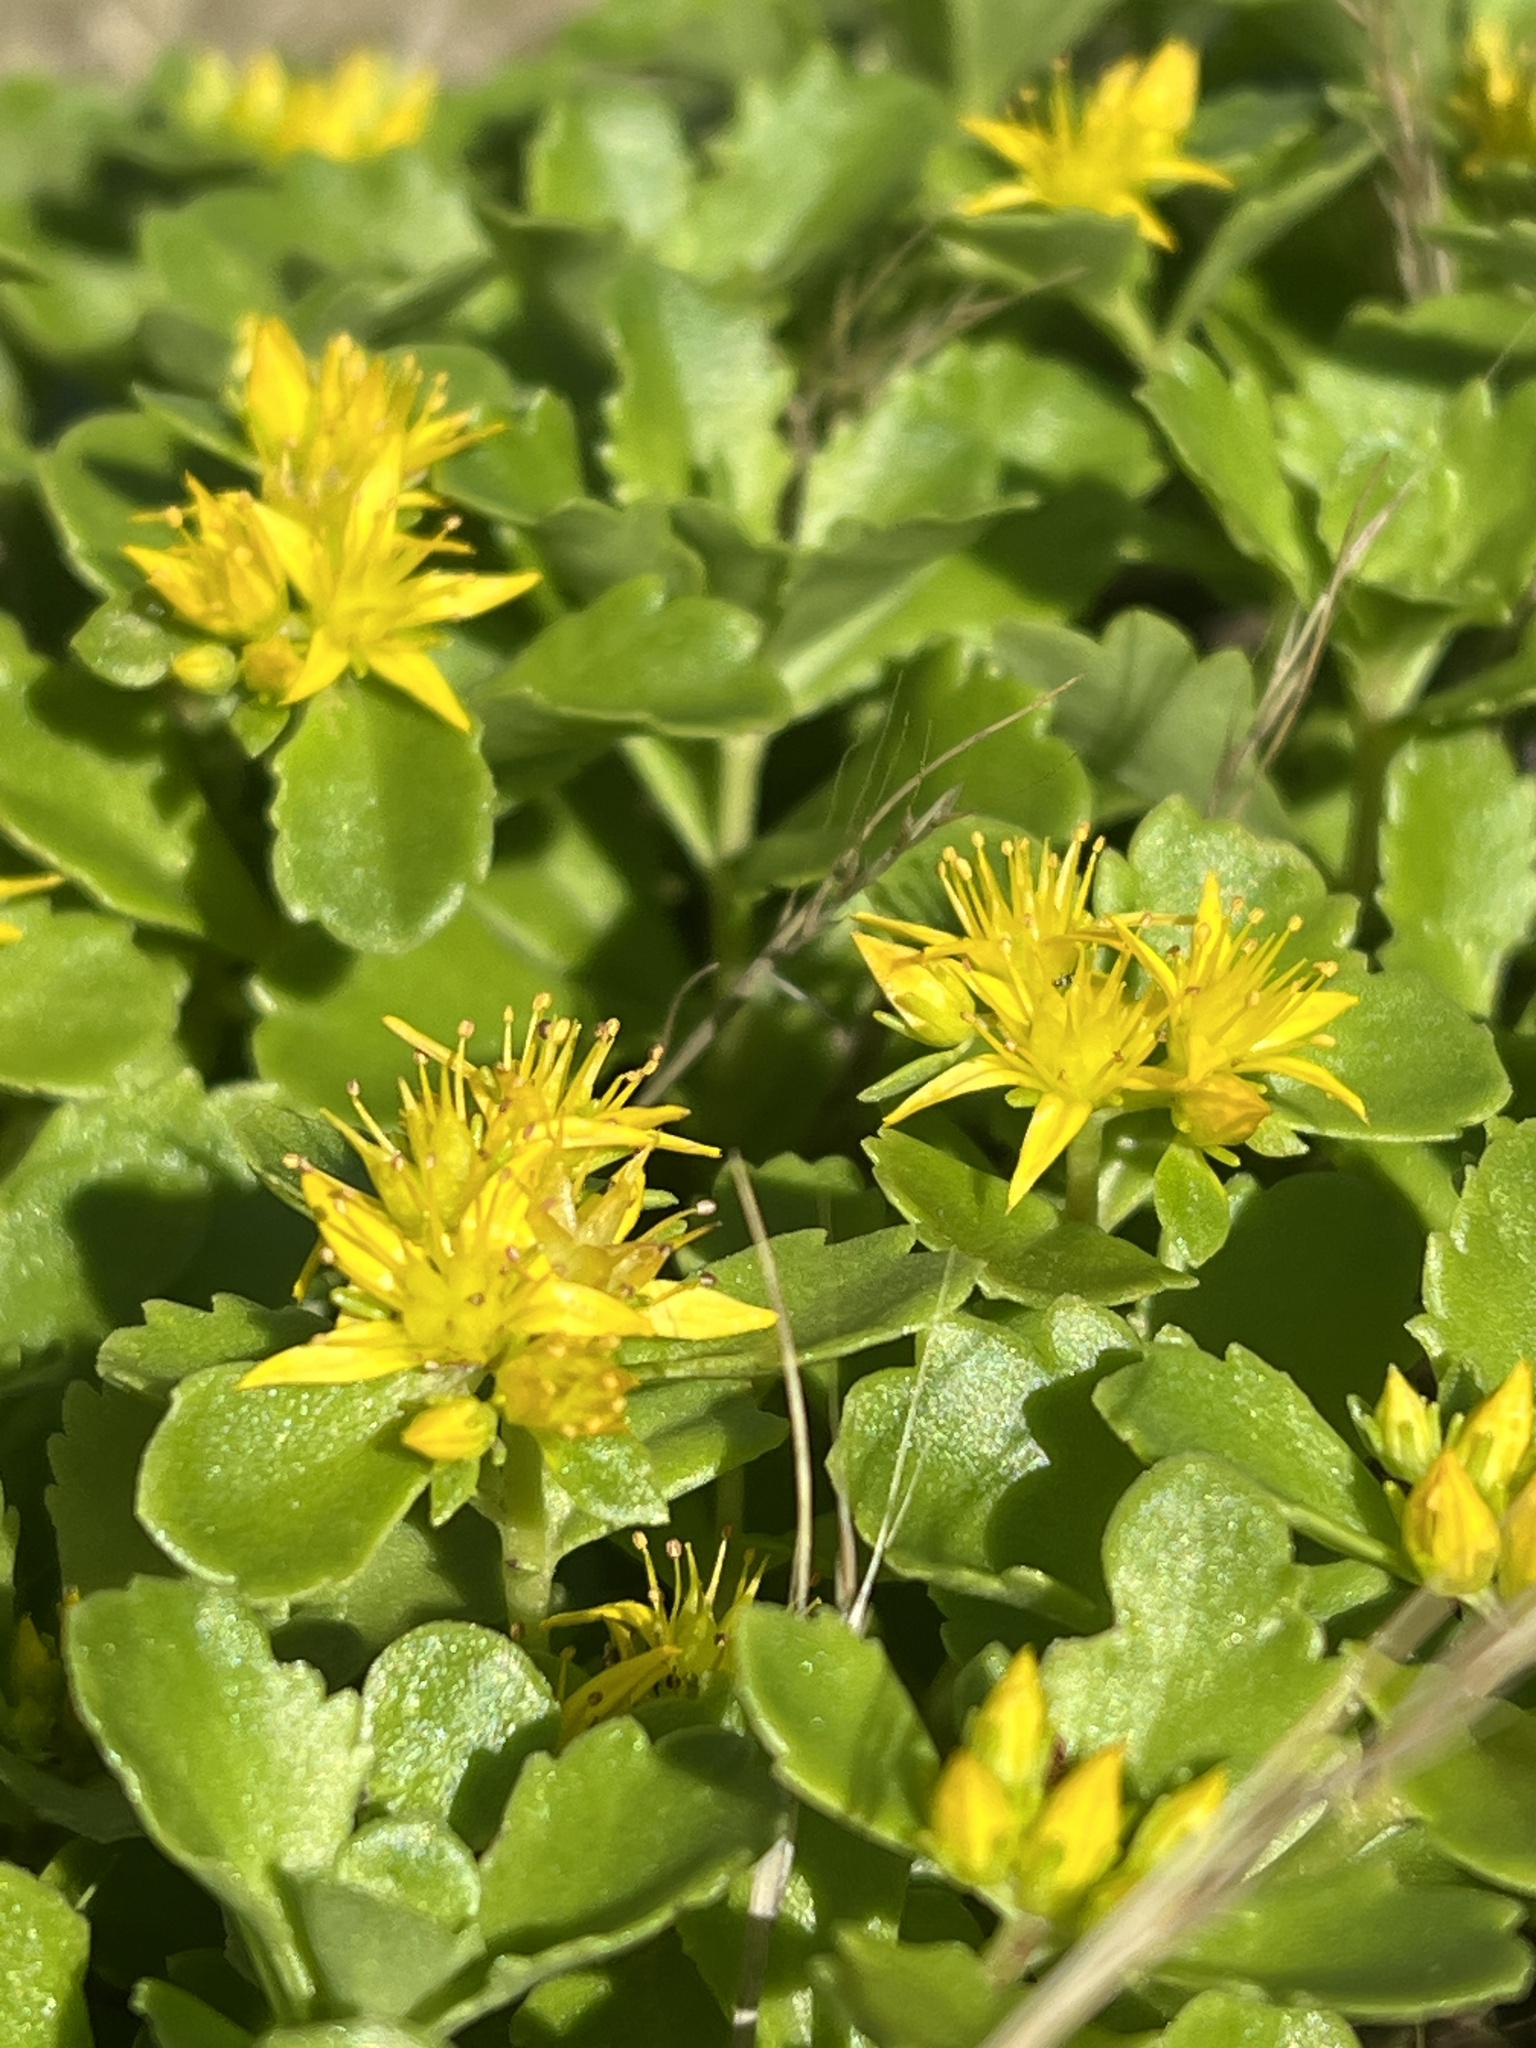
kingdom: Plantae
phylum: Tracheophyta
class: Magnoliopsida
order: Saxifragales
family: Crassulaceae
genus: Phedimus
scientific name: Phedimus ellacombeanus
